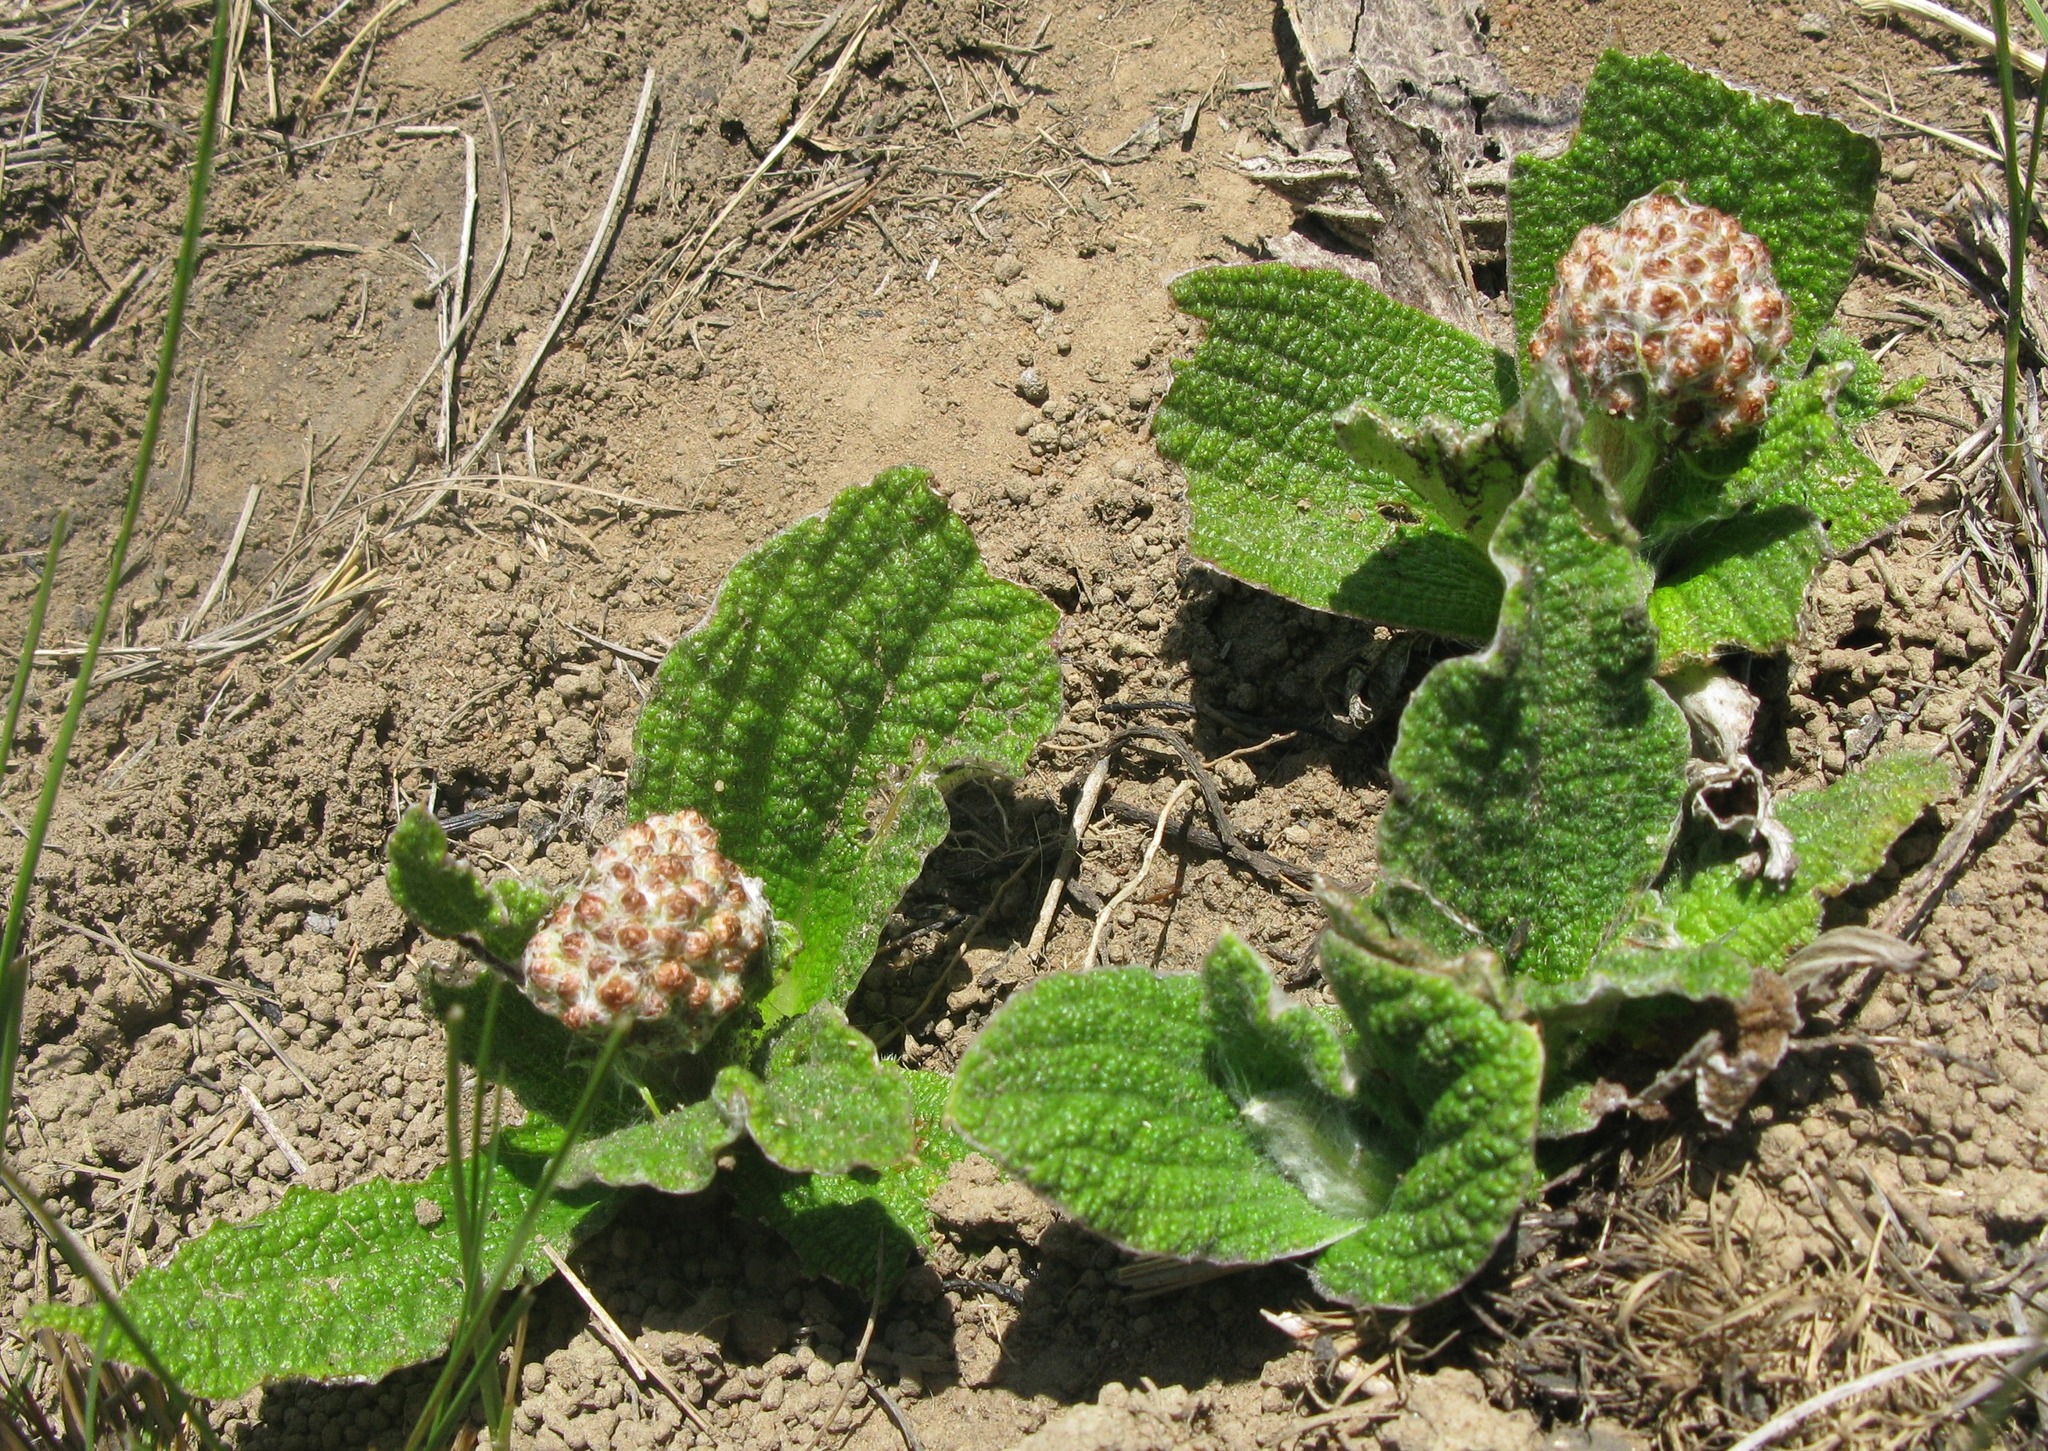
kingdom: Plantae
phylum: Tracheophyta
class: Magnoliopsida
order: Asterales
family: Asteraceae
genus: Helichrysum
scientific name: Helichrysum nudifolium
